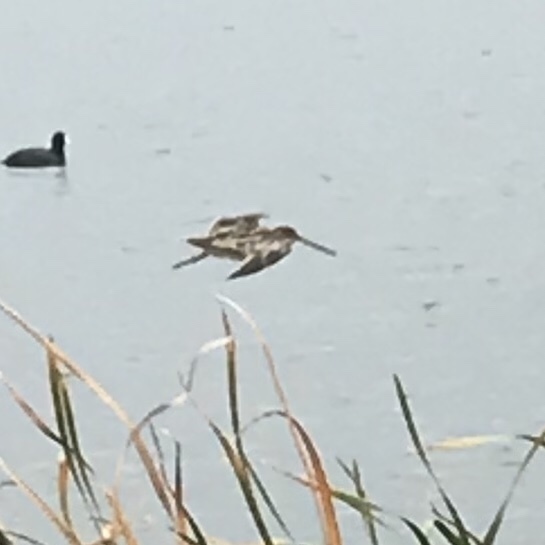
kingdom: Animalia
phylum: Chordata
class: Aves
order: Charadriiformes
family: Scolopacidae
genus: Gallinago
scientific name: Gallinago delicata
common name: Wilson's snipe
